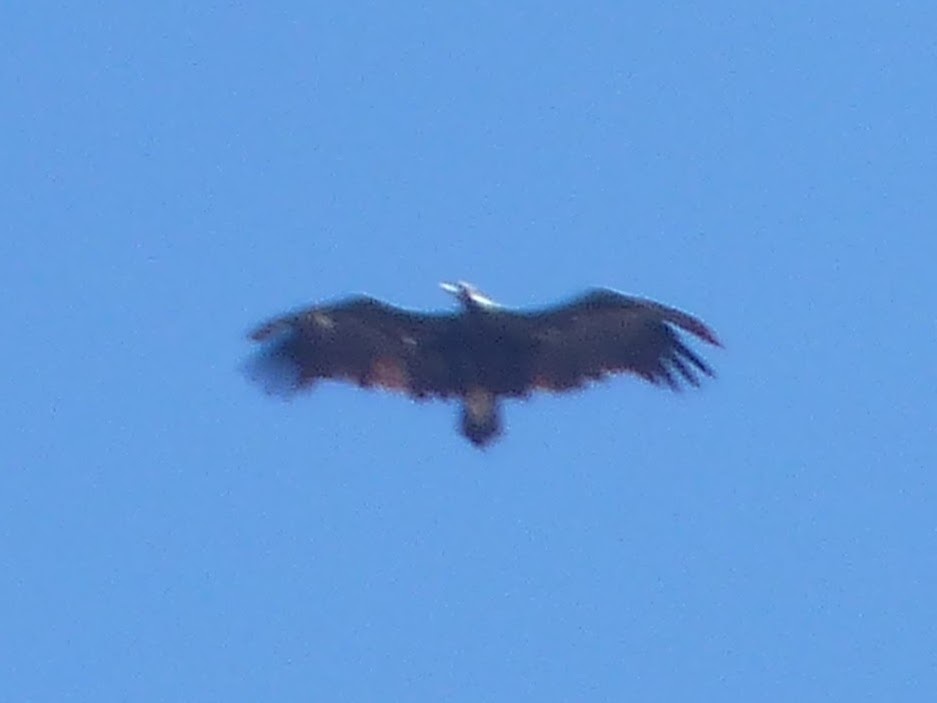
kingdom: Animalia
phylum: Chordata
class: Aves
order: Accipitriformes
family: Accipitridae
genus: Aegypius
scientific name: Aegypius monachus
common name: Cinereous vulture
